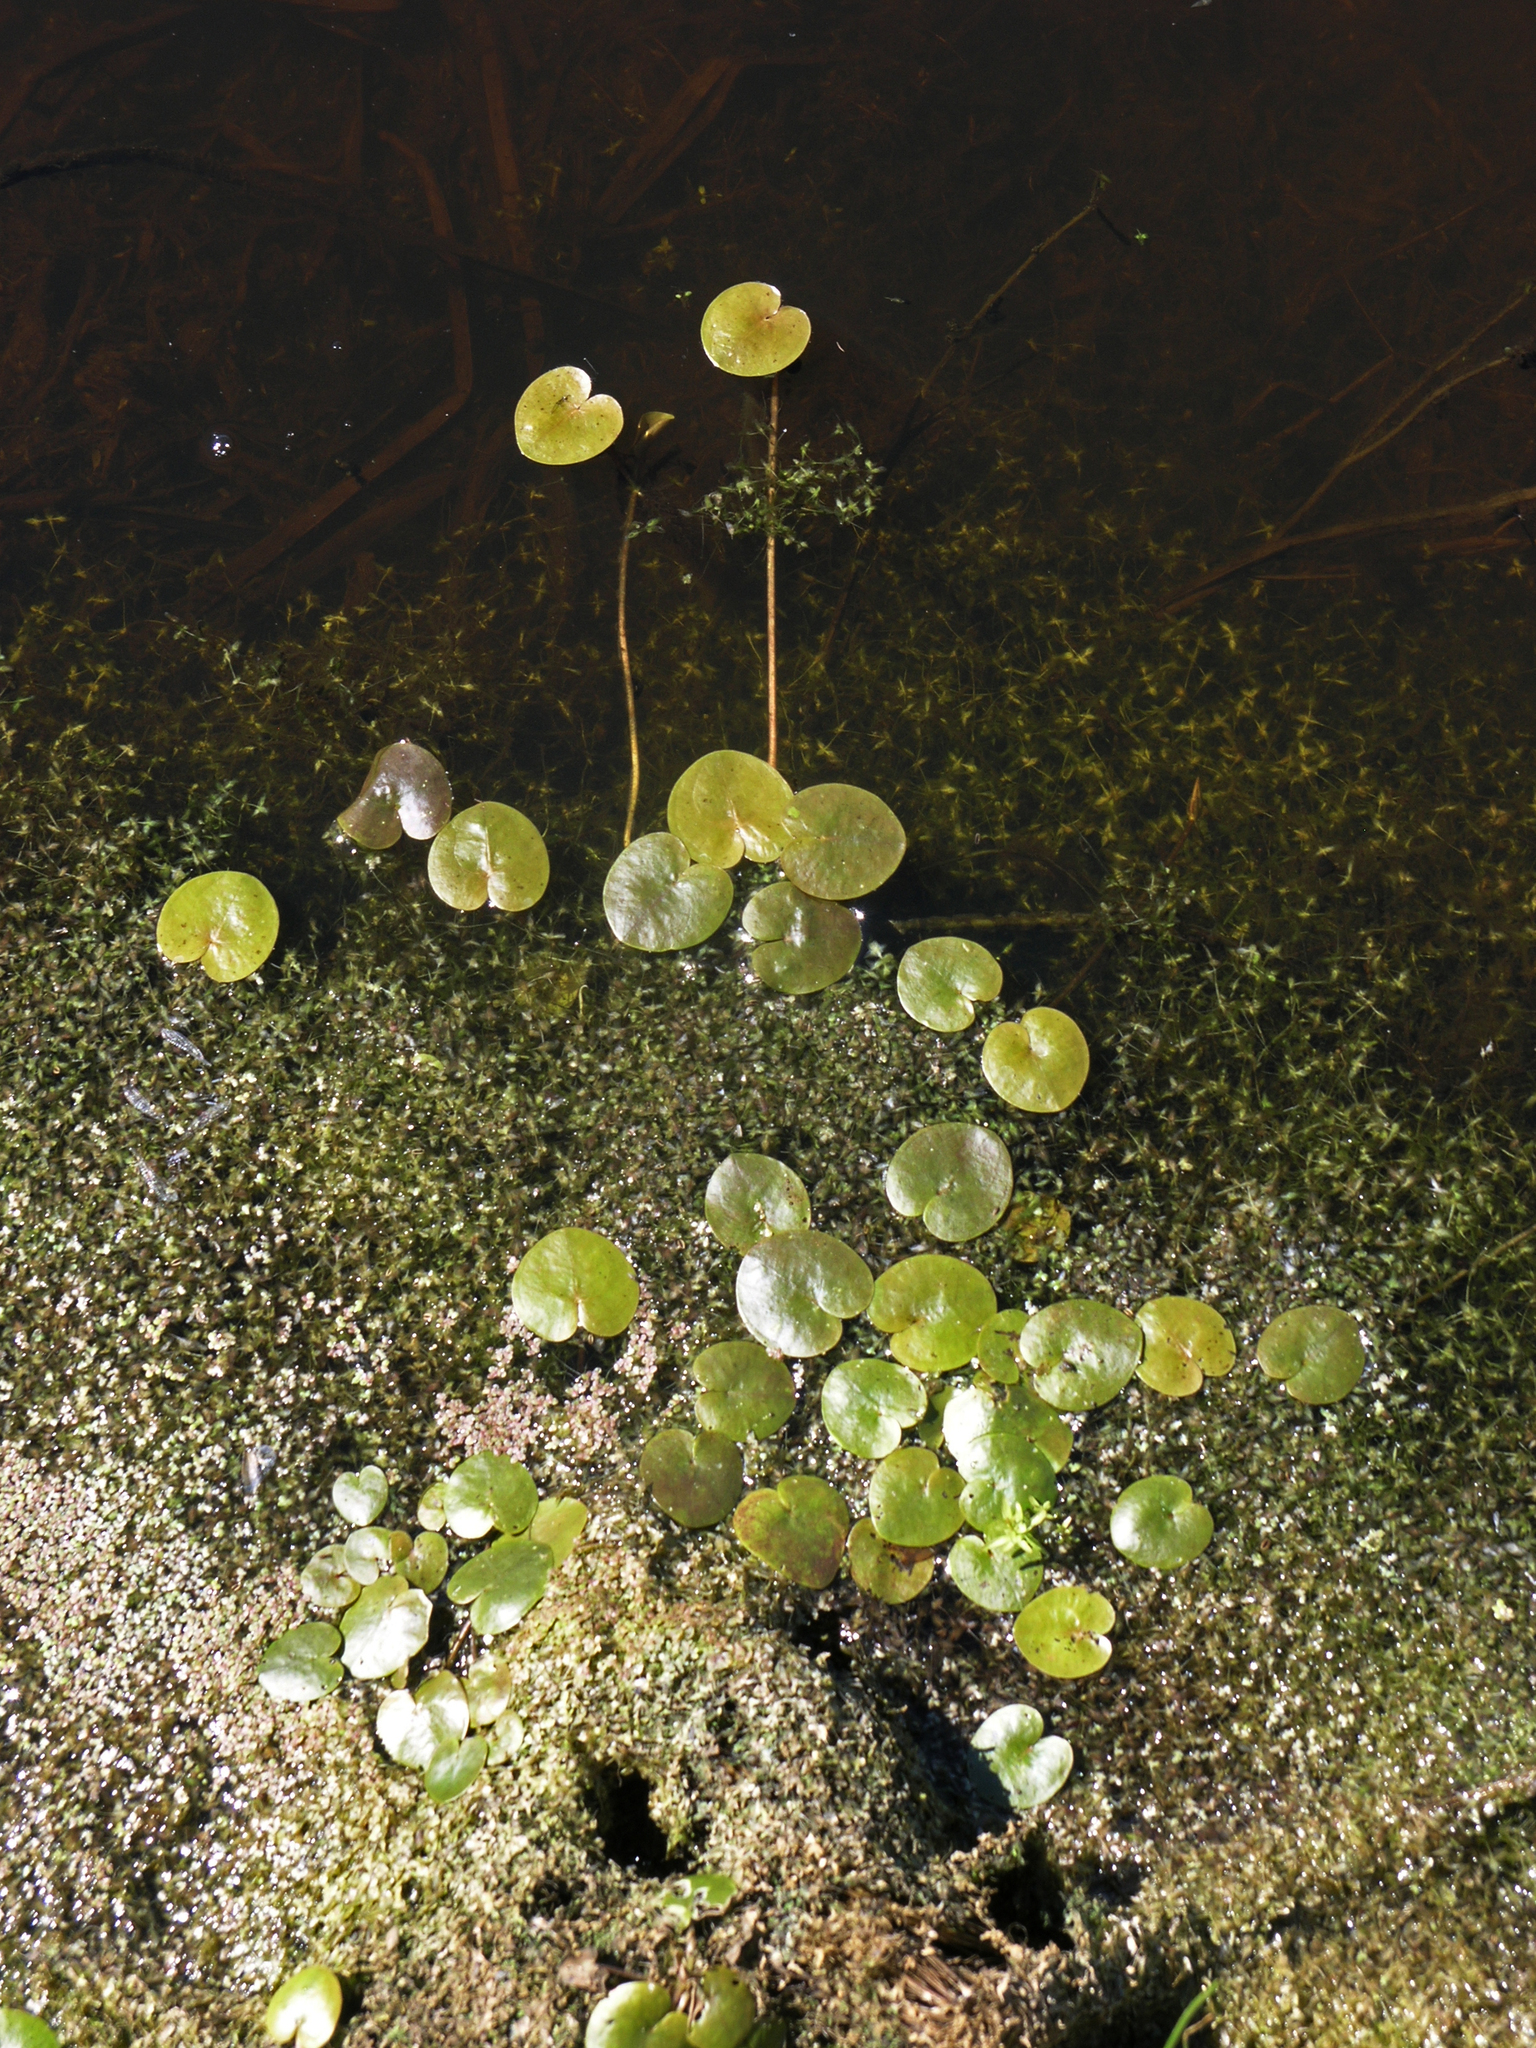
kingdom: Plantae
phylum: Tracheophyta
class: Liliopsida
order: Alismatales
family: Hydrocharitaceae
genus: Hydrocharis
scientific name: Hydrocharis morsus-ranae
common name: Frogbit
